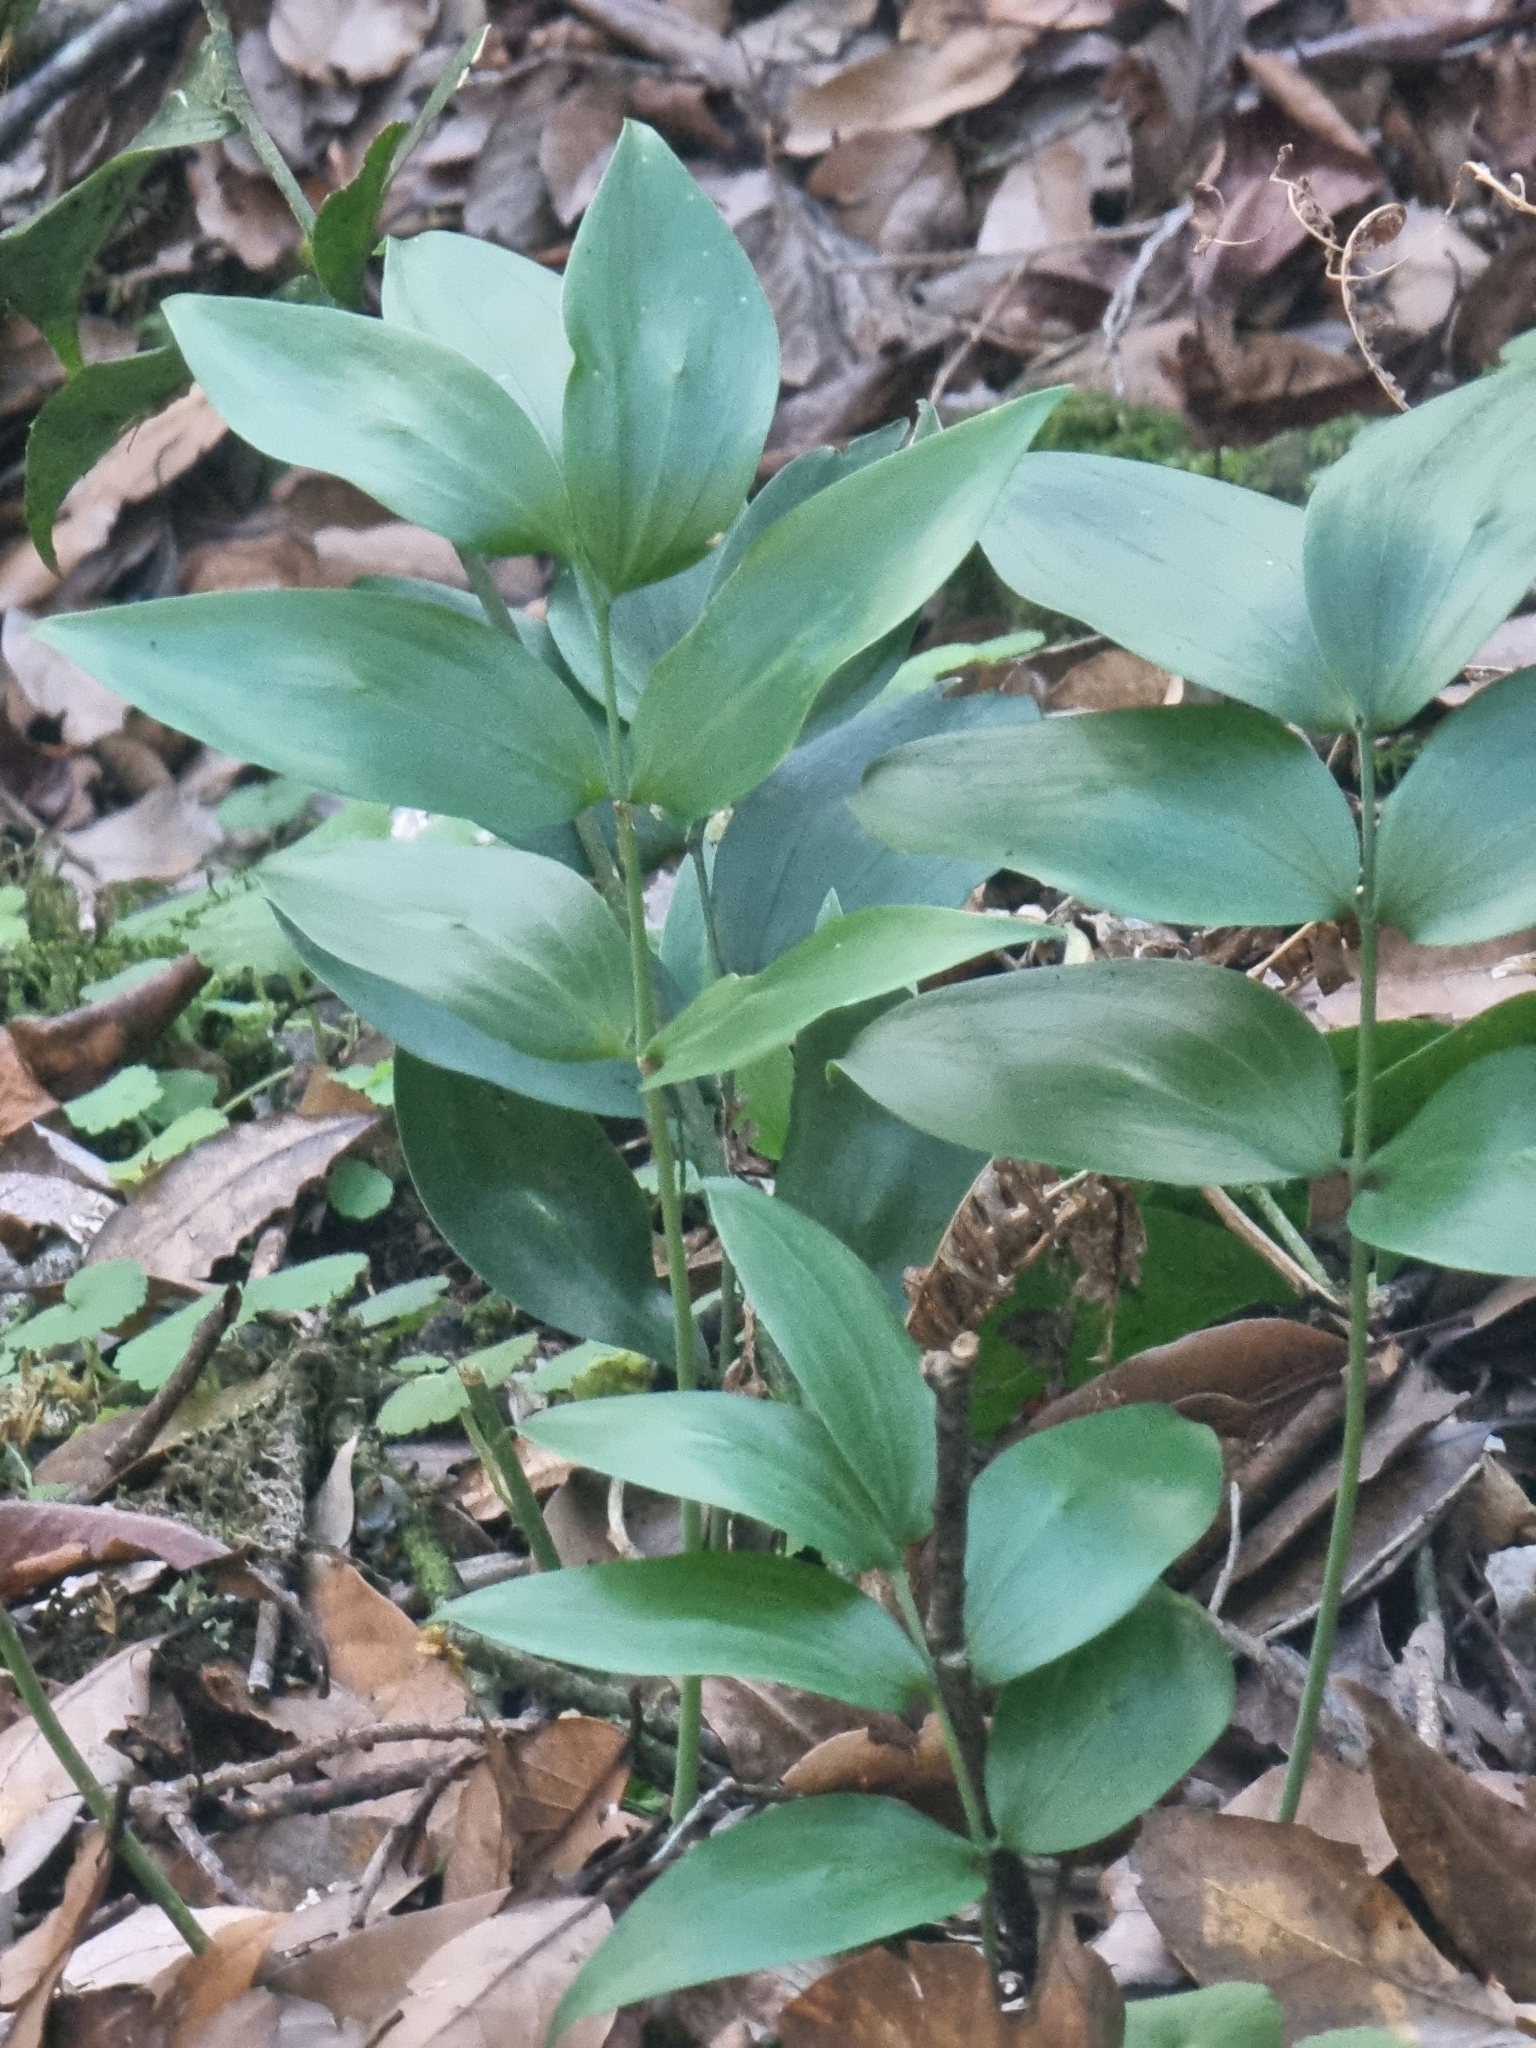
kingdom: Plantae
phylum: Tracheophyta
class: Liliopsida
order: Asparagales
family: Asparagaceae
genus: Ruscus
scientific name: Ruscus streptophyllus
